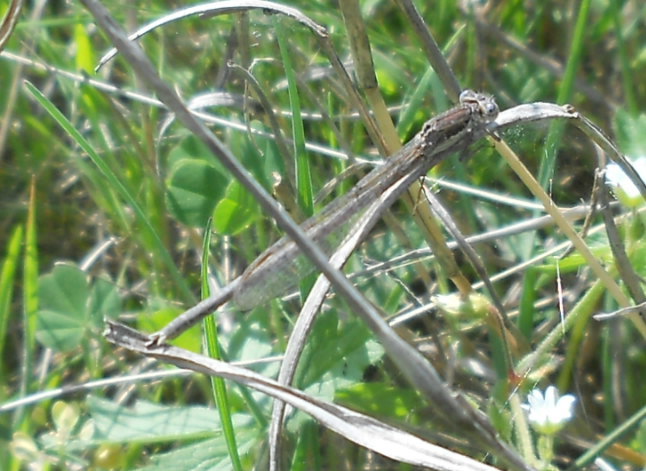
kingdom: Animalia
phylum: Arthropoda
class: Insecta
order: Odonata
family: Lestidae
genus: Sympecma
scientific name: Sympecma fusca
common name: Common winter damsel
